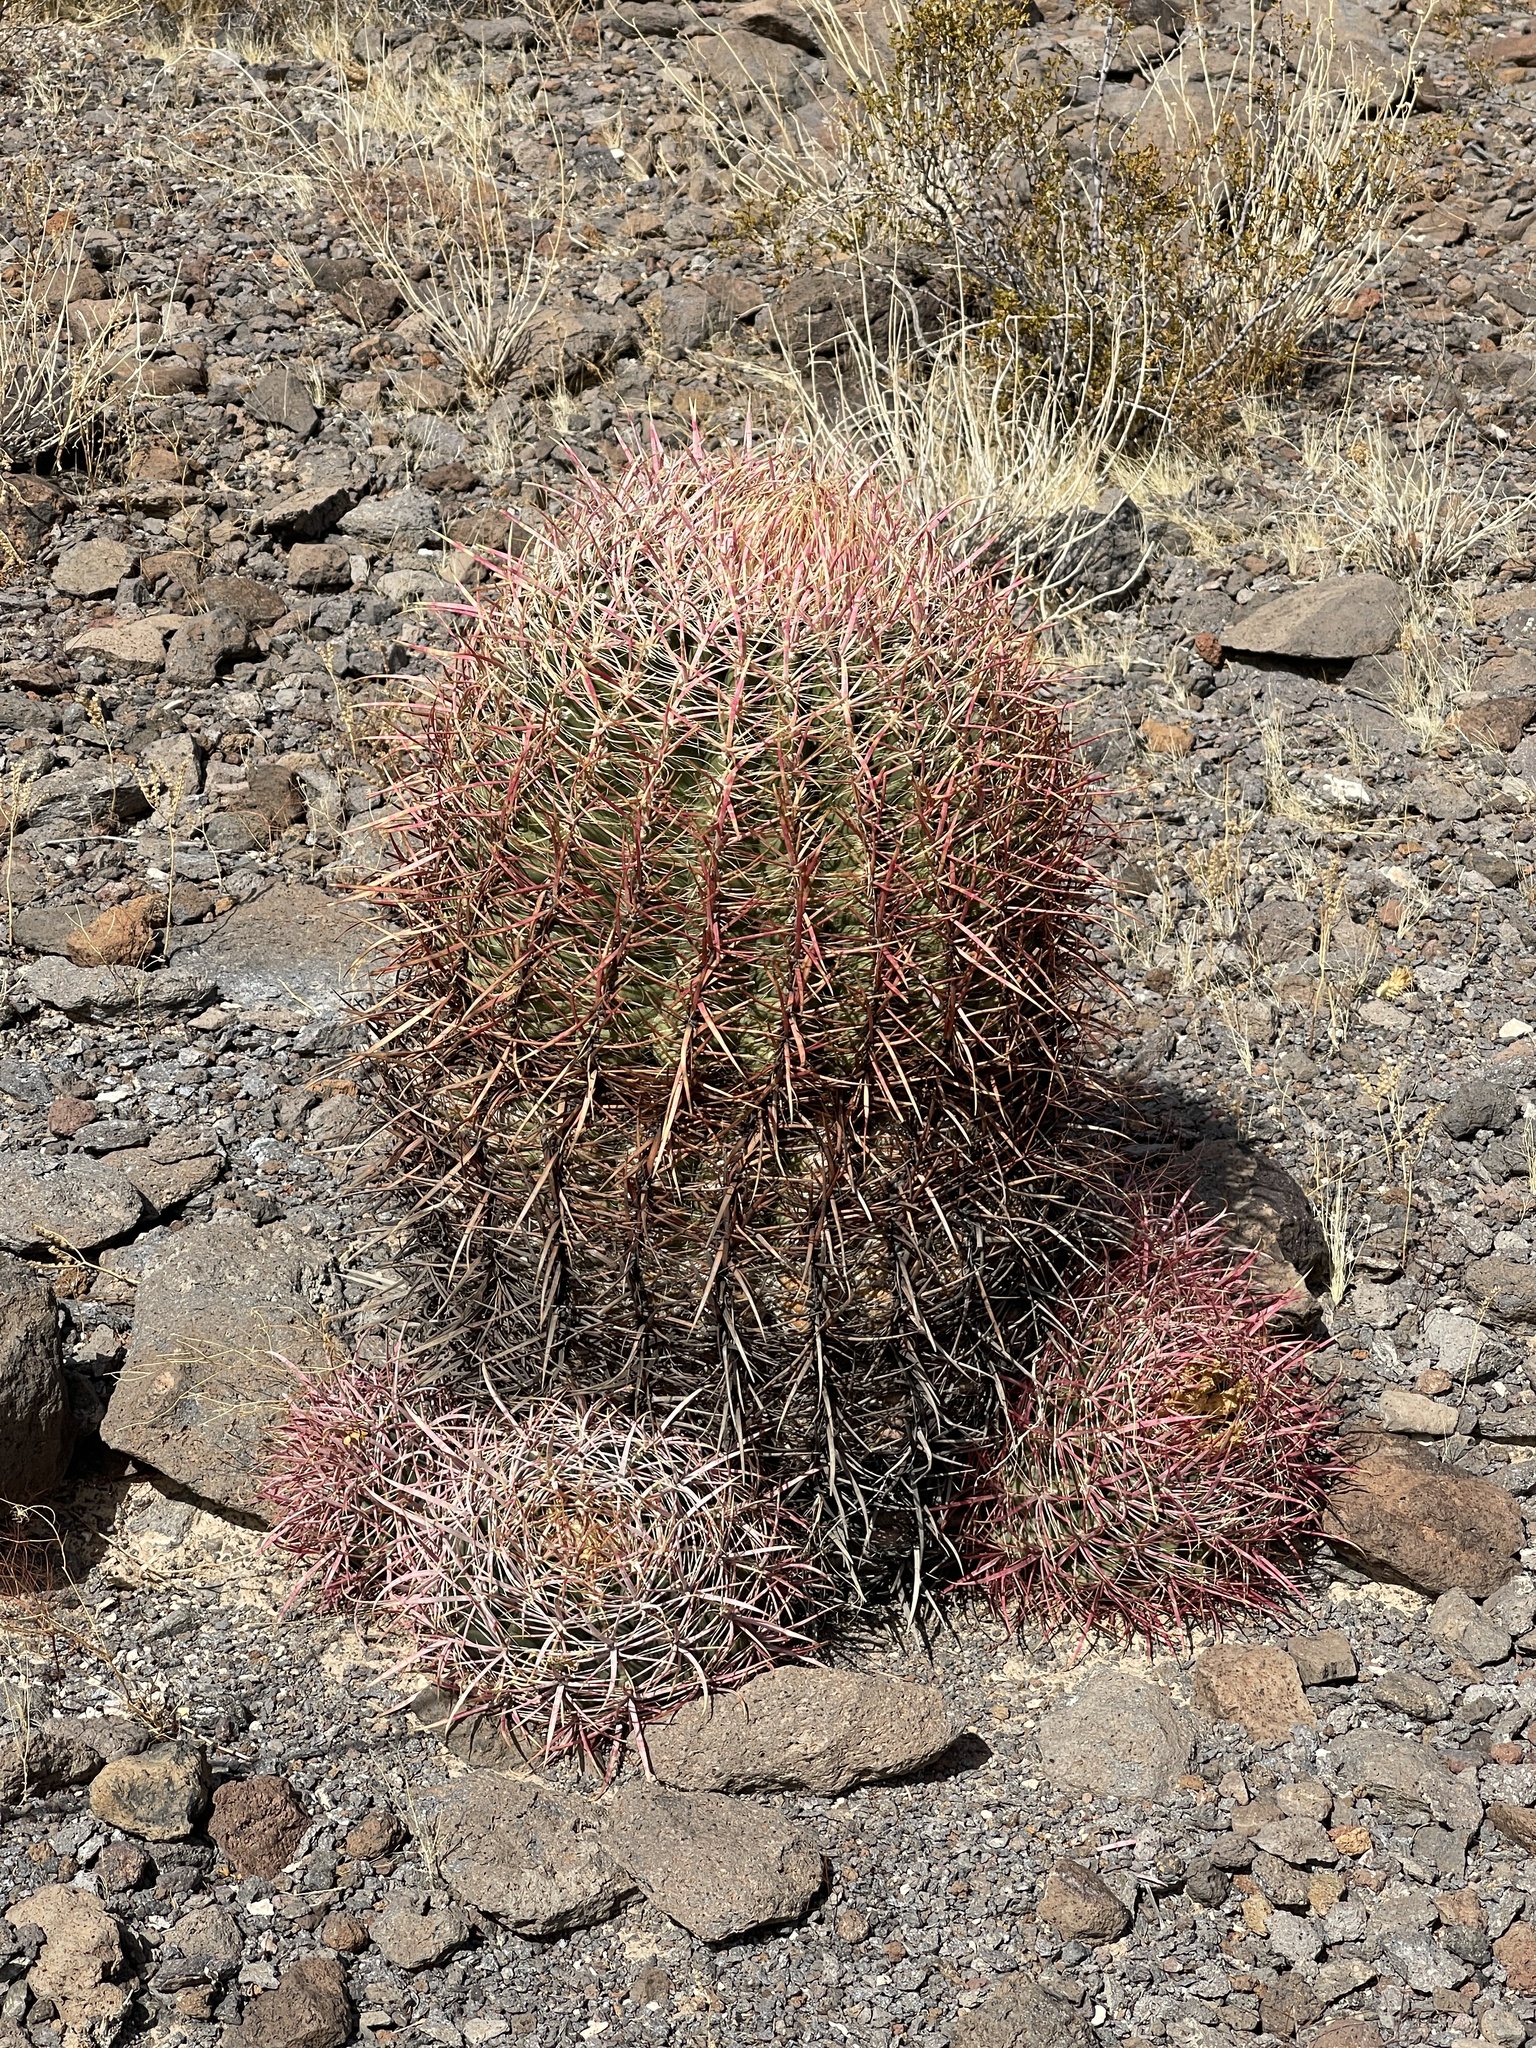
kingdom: Plantae
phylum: Tracheophyta
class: Magnoliopsida
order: Caryophyllales
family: Cactaceae
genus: Ferocactus
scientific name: Ferocactus cylindraceus
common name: California barrel cactus
